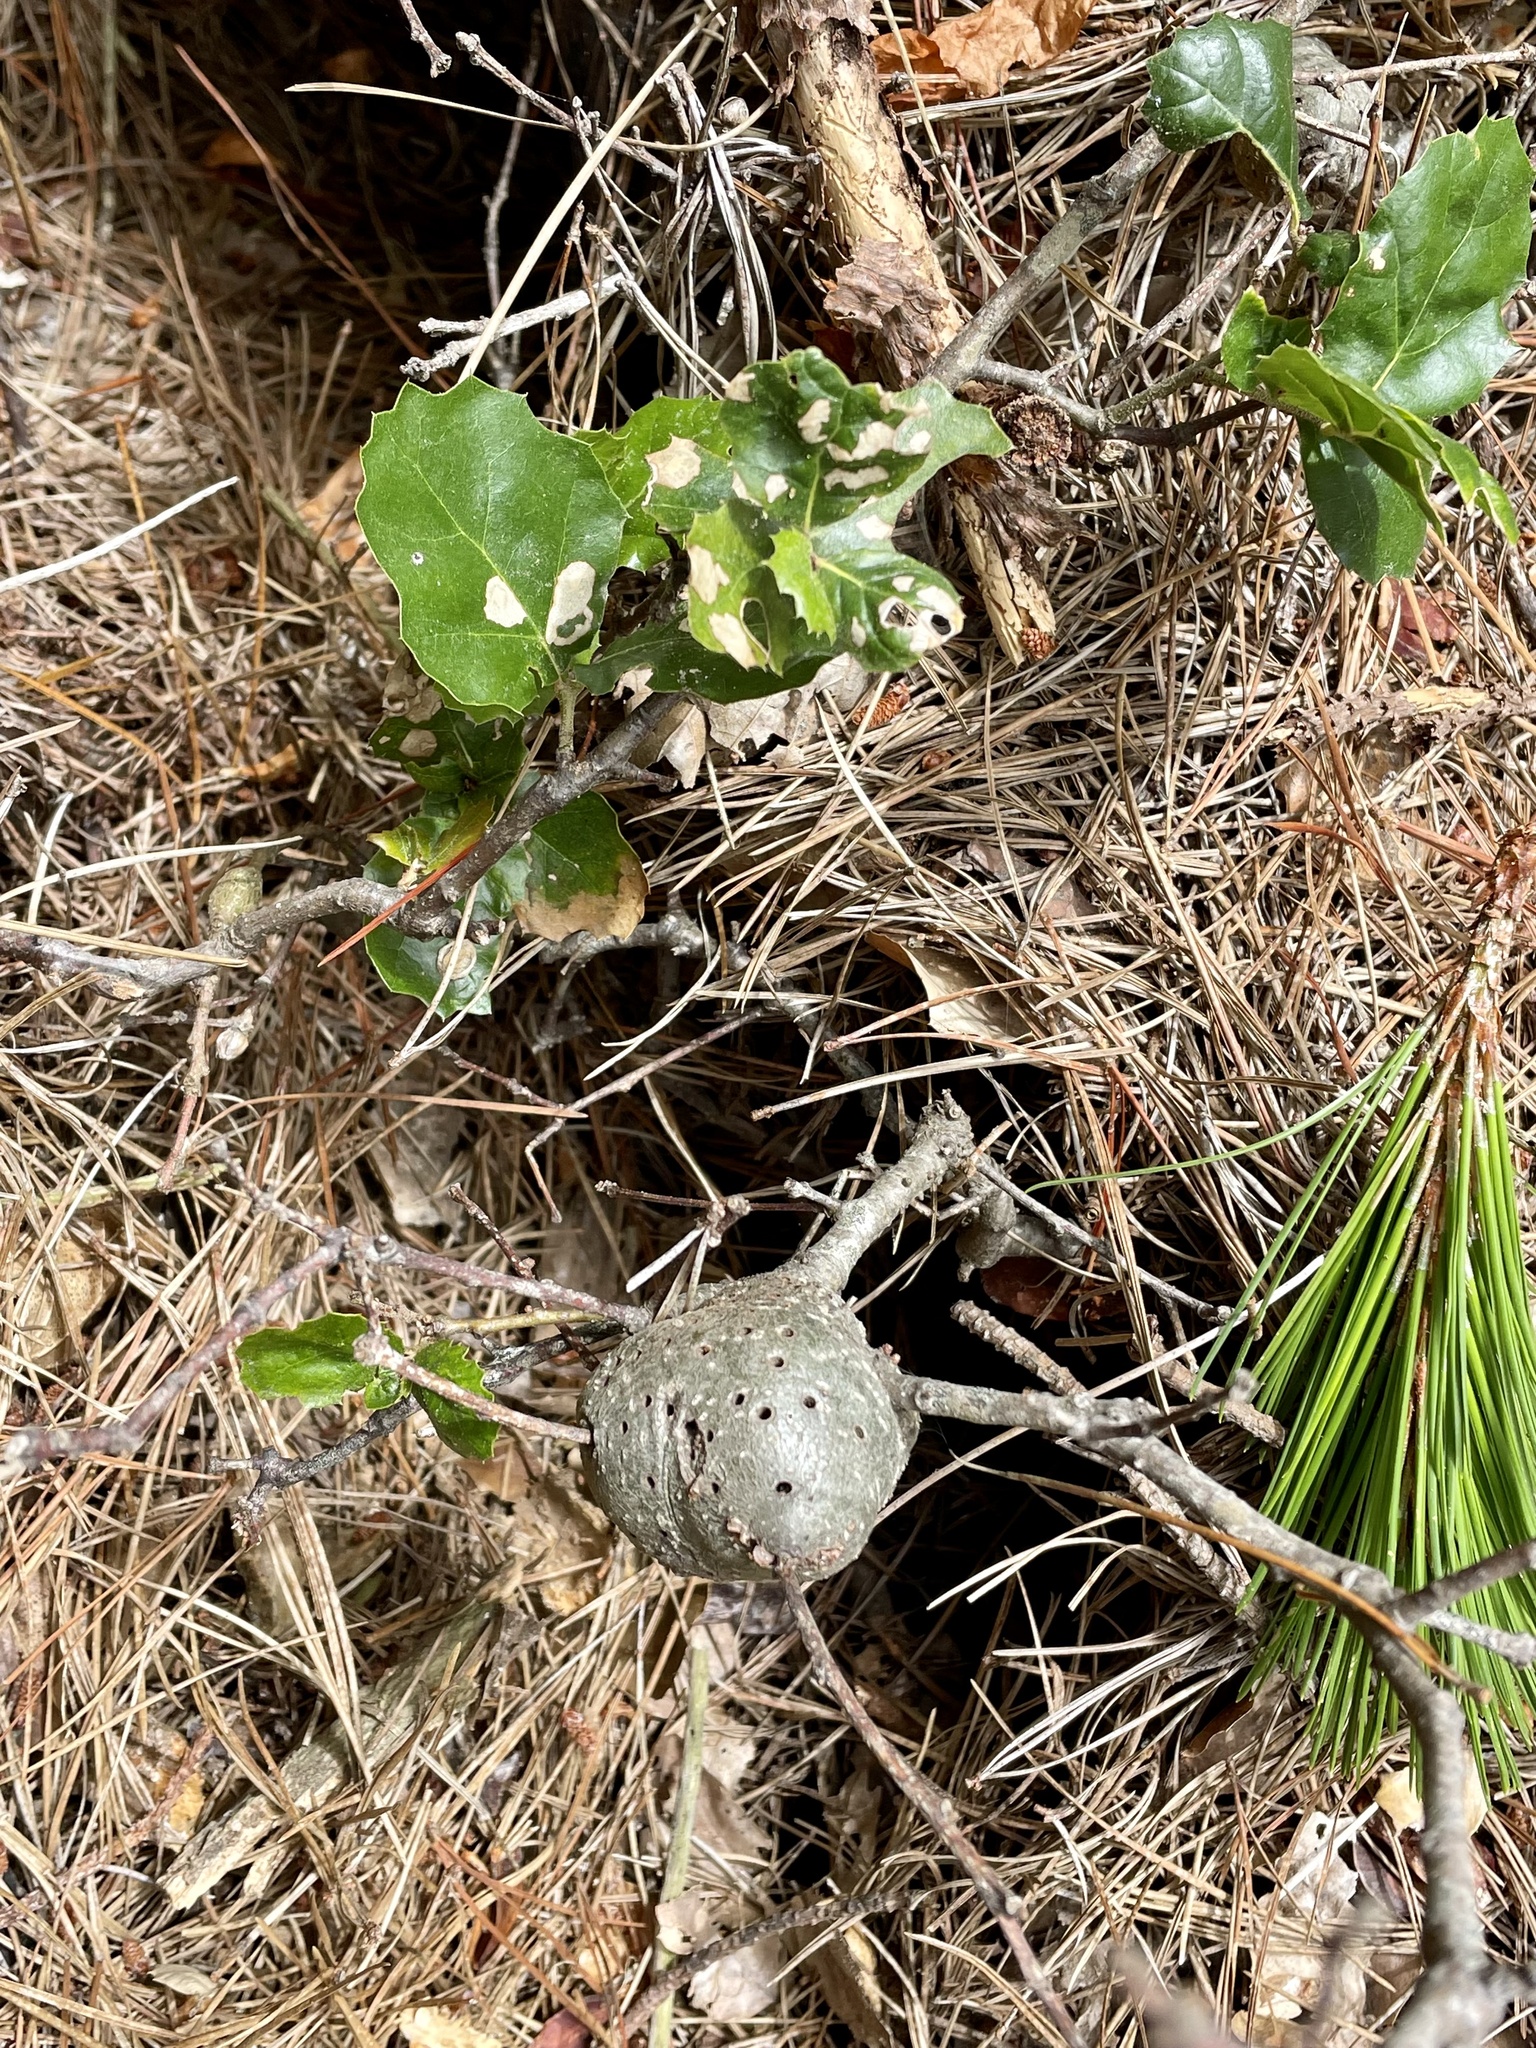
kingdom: Animalia
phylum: Arthropoda
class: Insecta
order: Hymenoptera
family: Cynipidae
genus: Callirhytis
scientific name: Callirhytis
